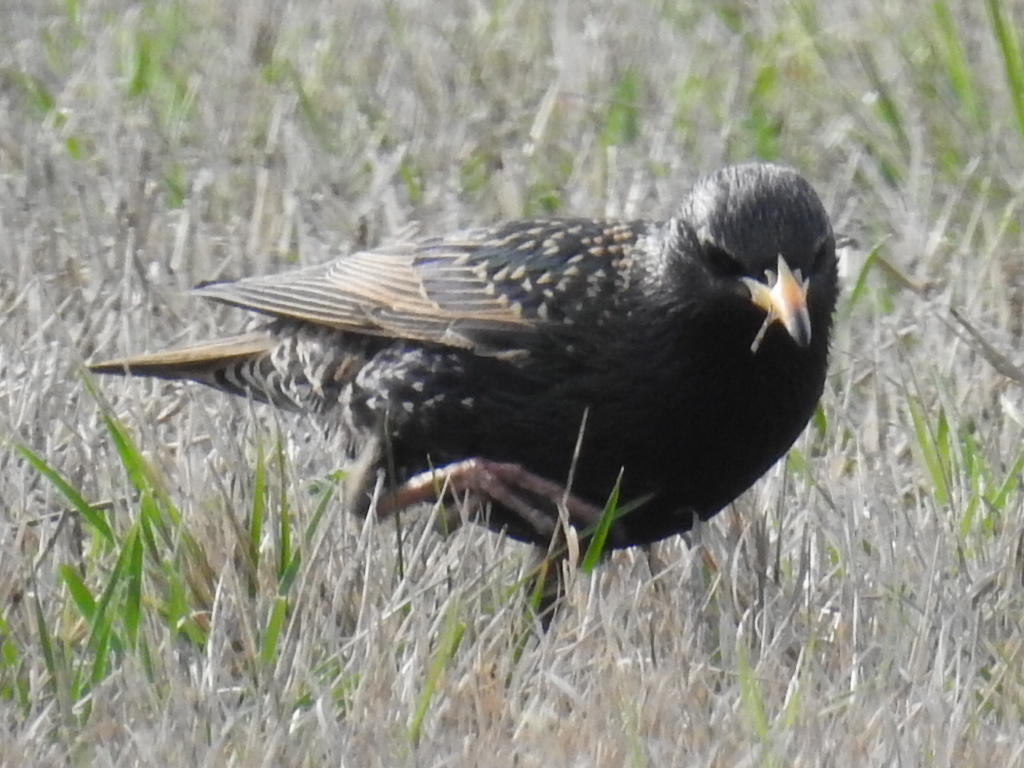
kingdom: Animalia
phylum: Chordata
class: Aves
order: Passeriformes
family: Sturnidae
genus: Sturnus
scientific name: Sturnus vulgaris
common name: Common starling
